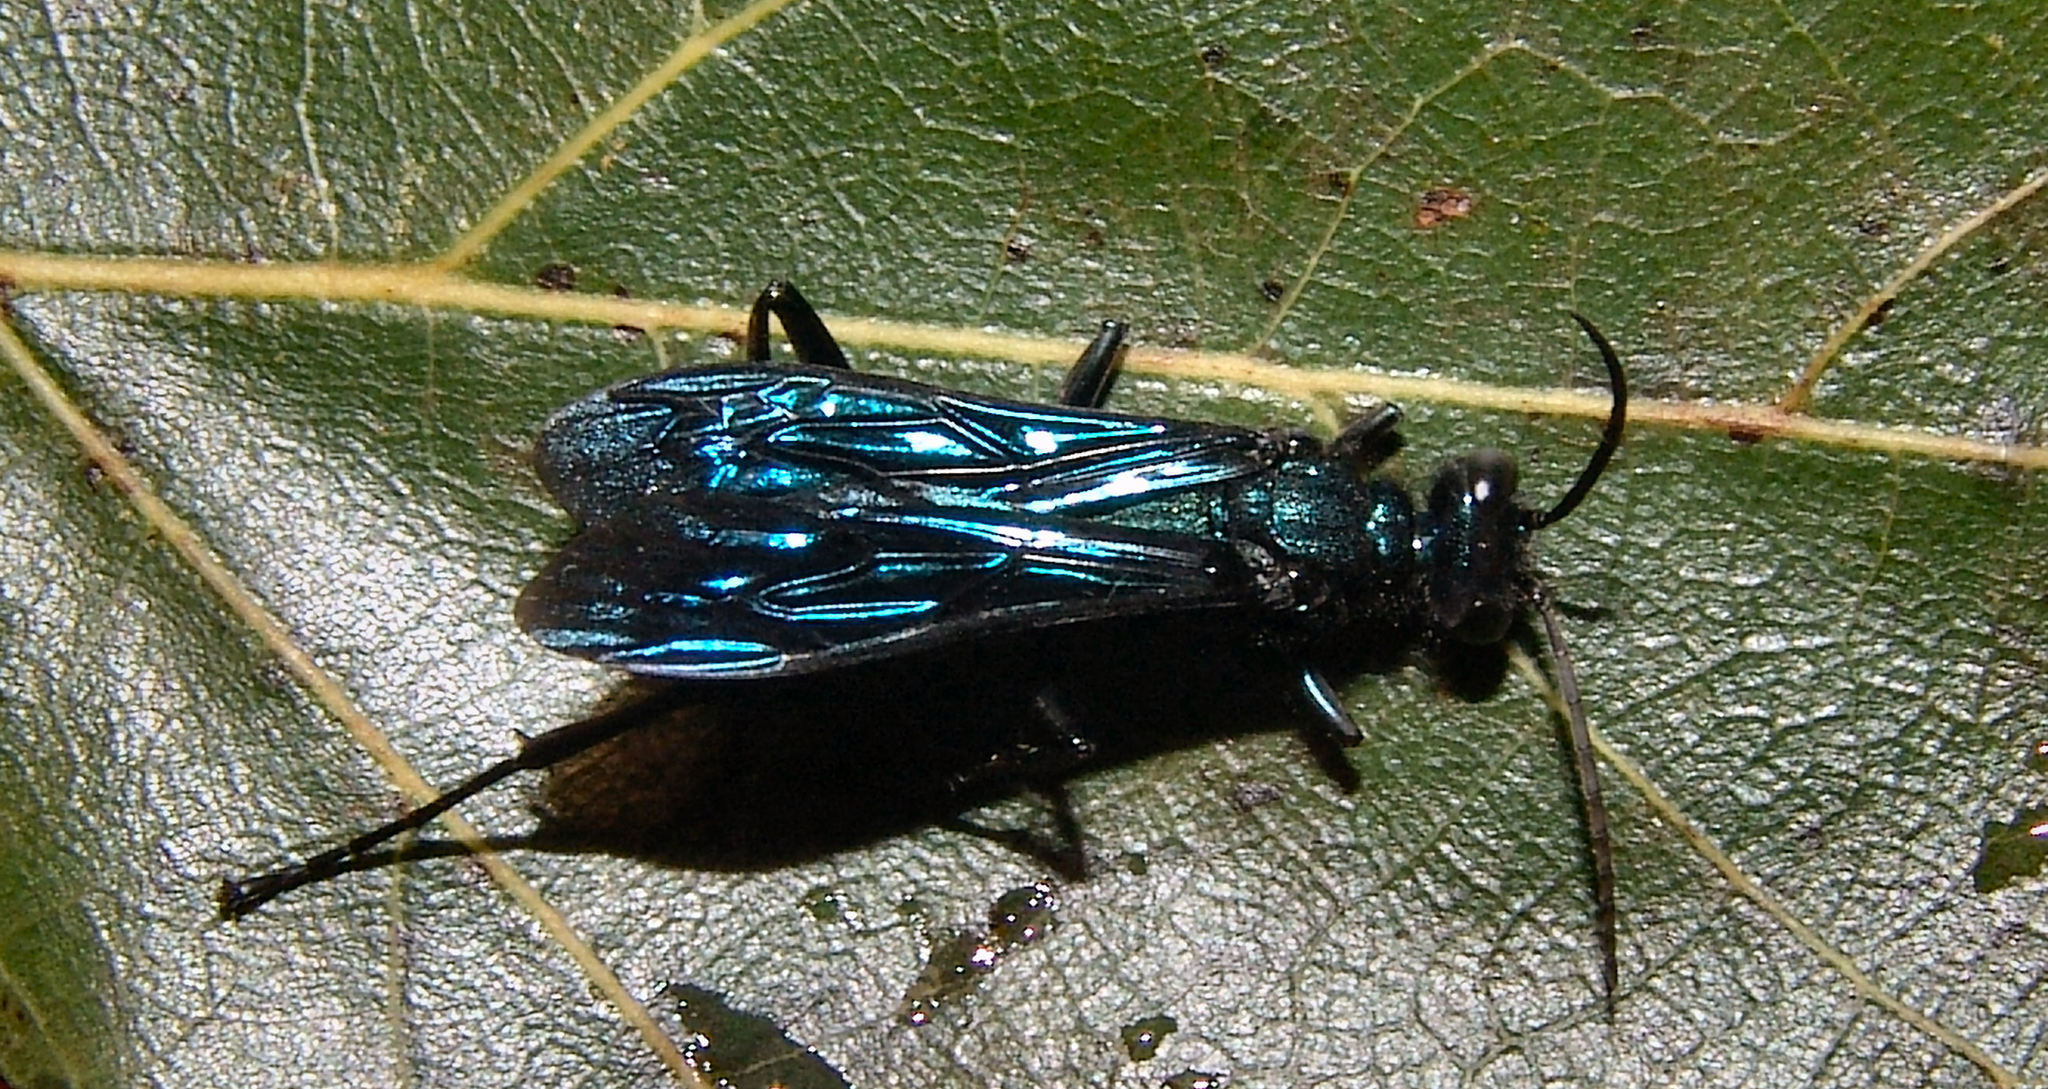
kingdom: Animalia
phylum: Arthropoda
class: Insecta
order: Hymenoptera
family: Sphecidae
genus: Chalybion
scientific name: Chalybion californicum
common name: Mud dauber
